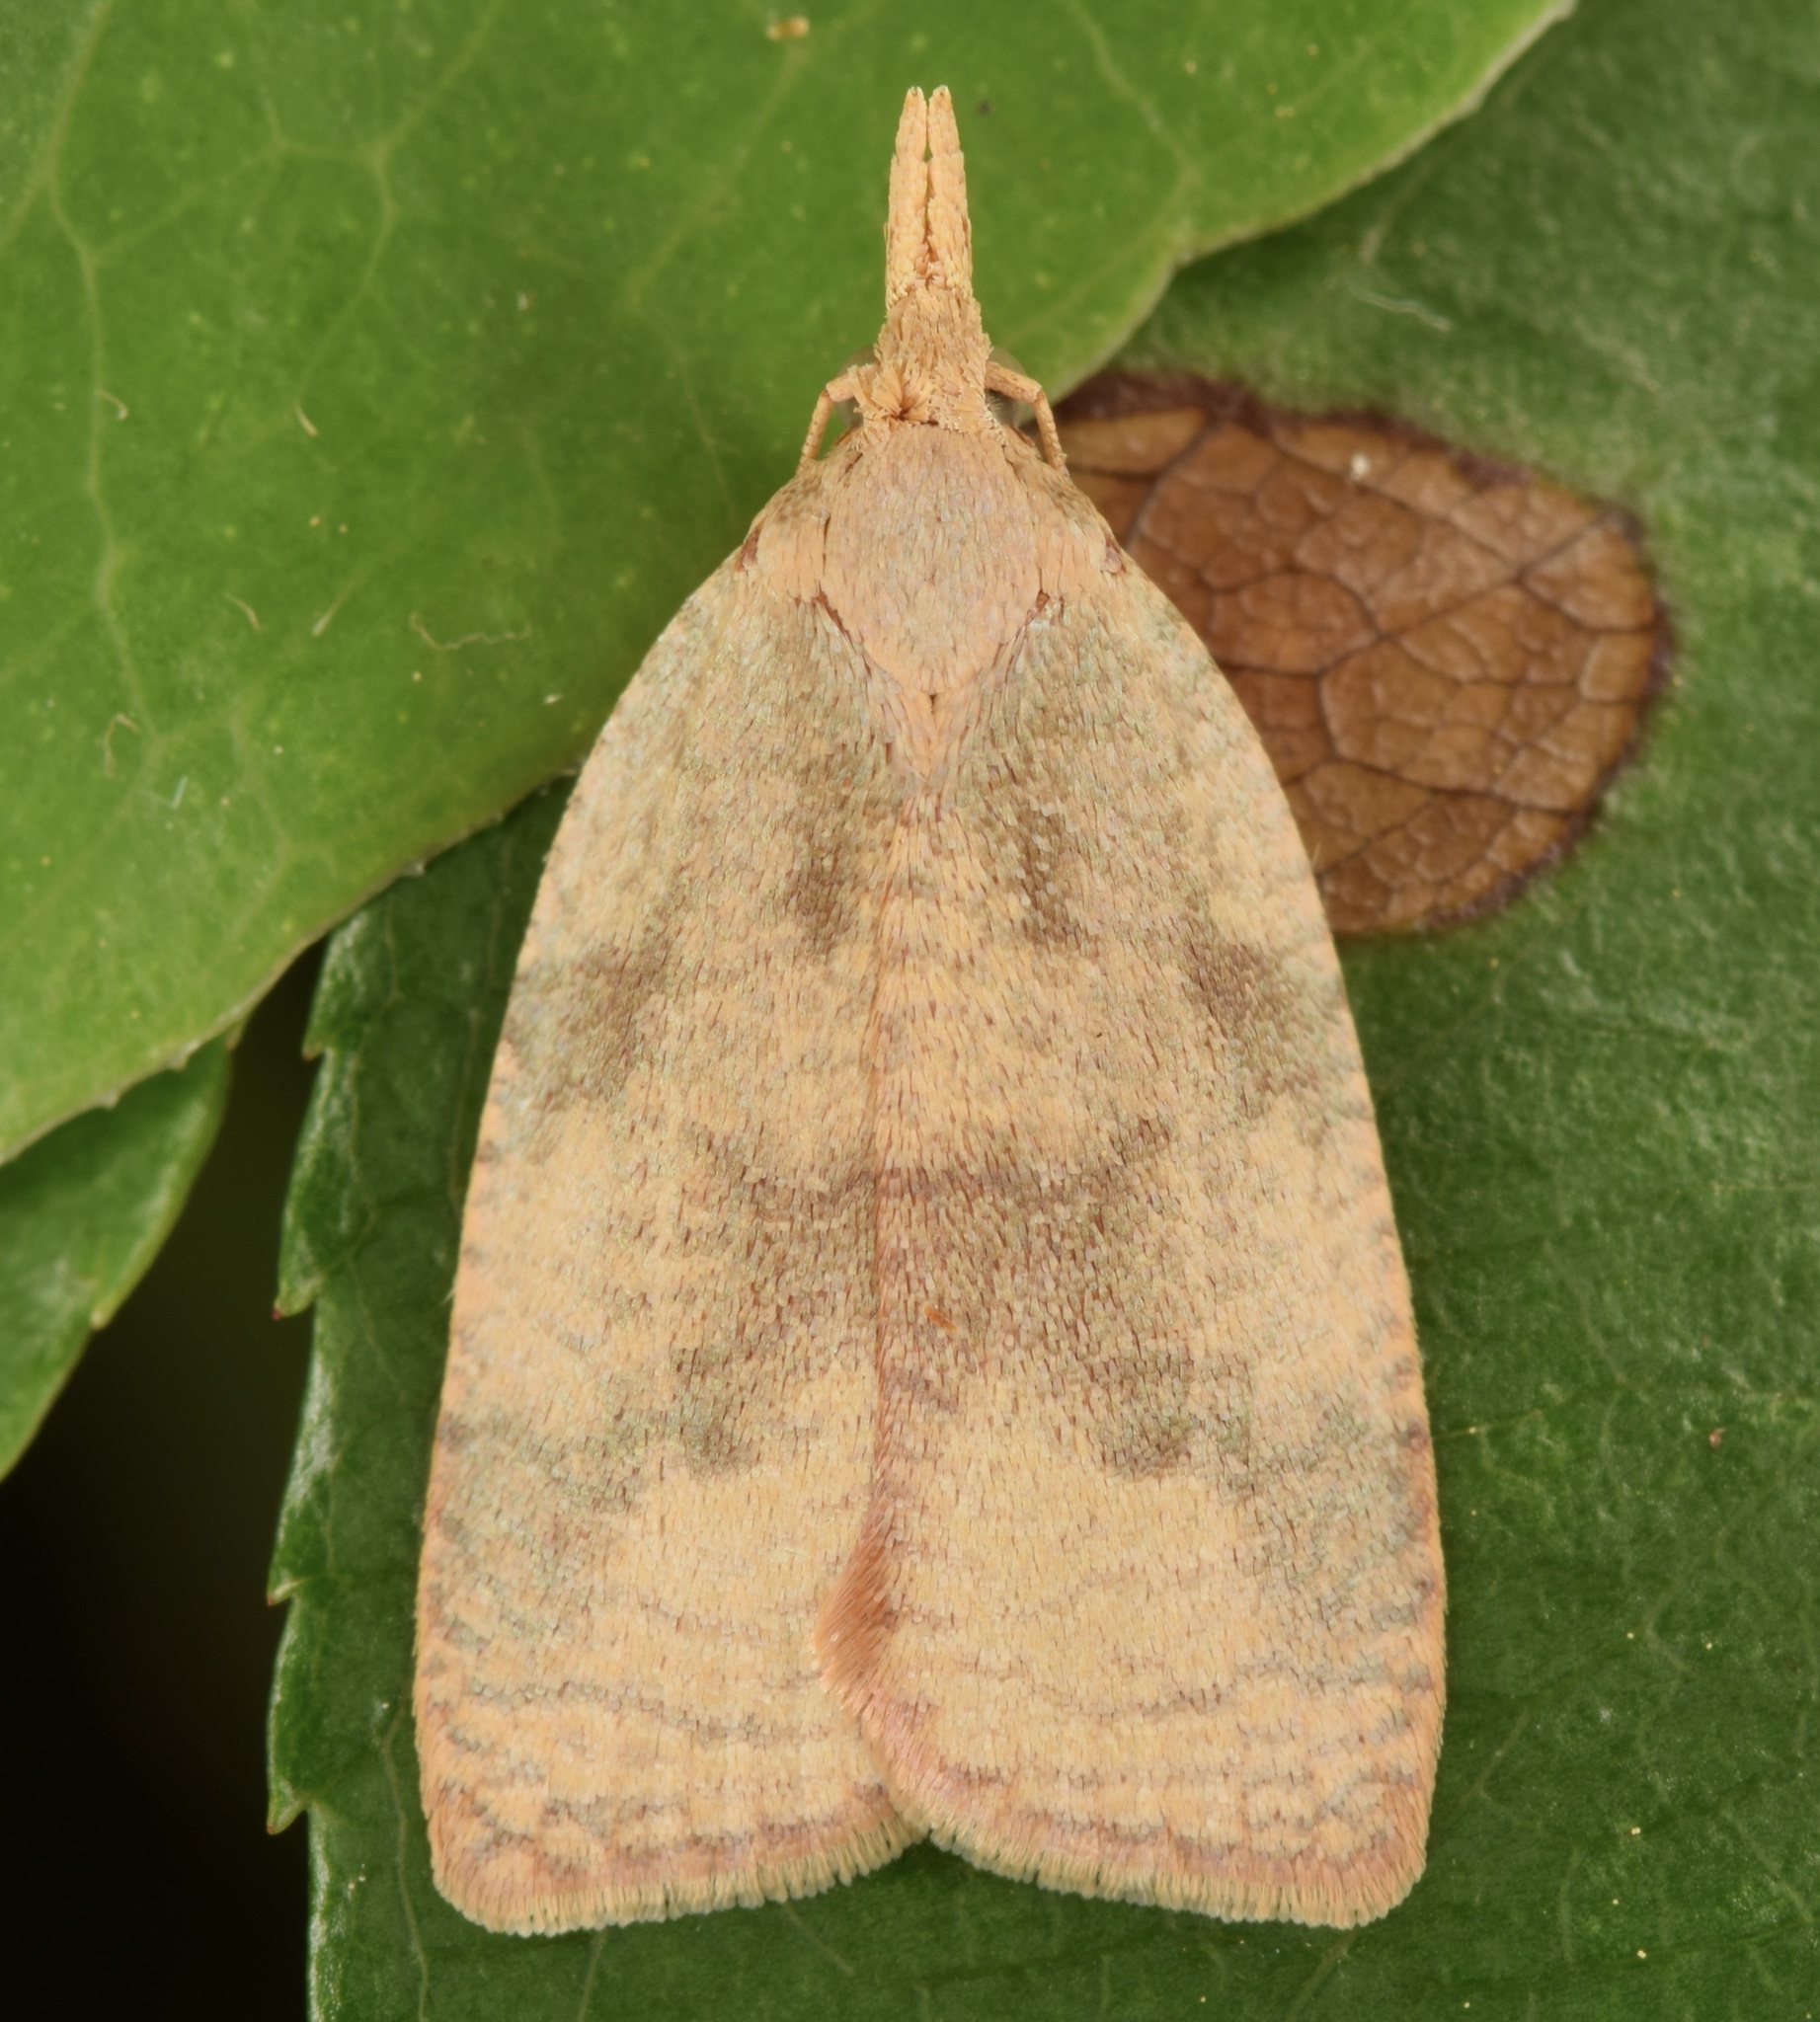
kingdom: Animalia
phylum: Arthropoda
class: Insecta
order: Lepidoptera
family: Tortricidae
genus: Cenopis
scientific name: Cenopis saracana
